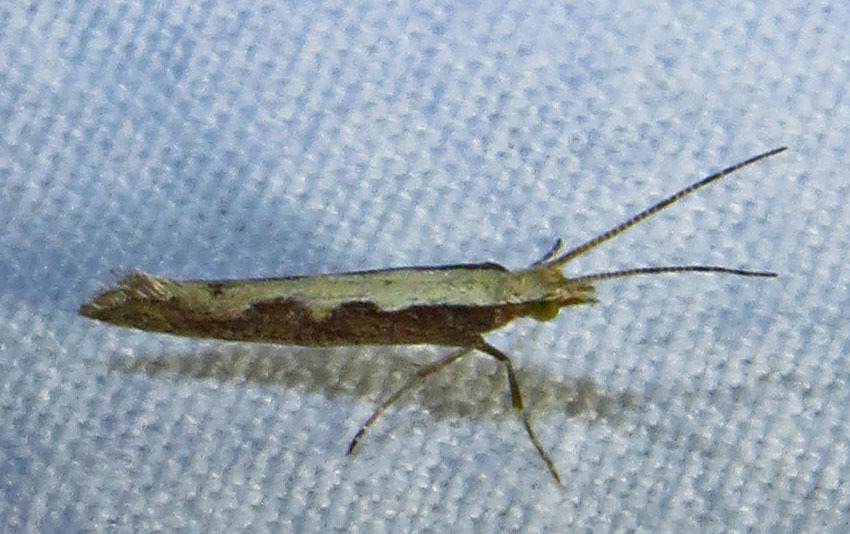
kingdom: Animalia
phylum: Arthropoda
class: Insecta
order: Lepidoptera
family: Plutellidae
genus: Plutella
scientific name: Plutella xylostella
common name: Diamond-back moth
